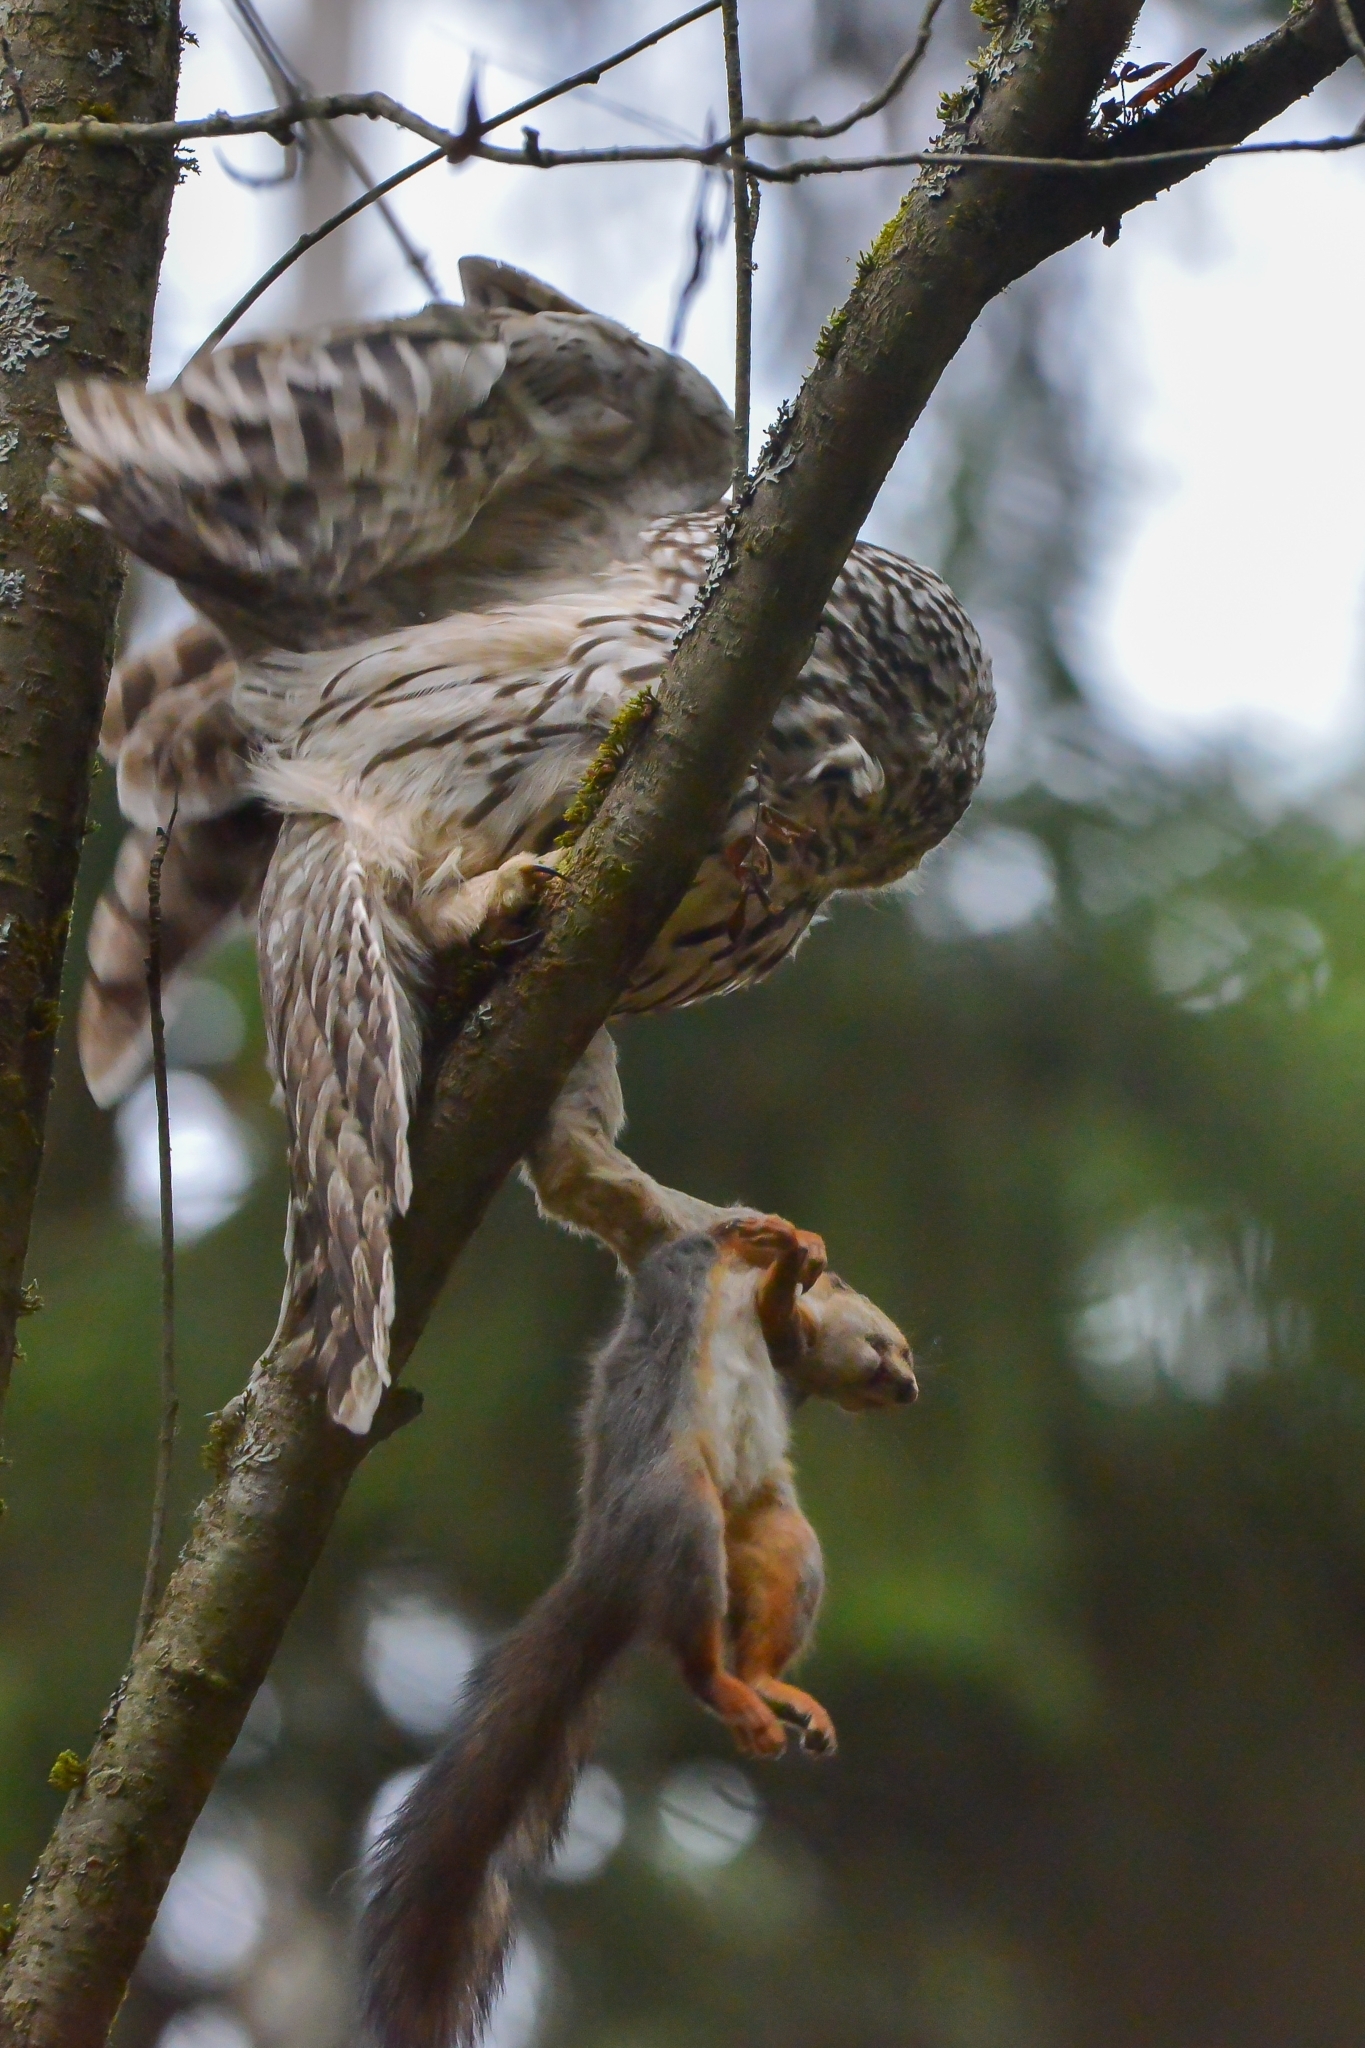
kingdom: Animalia
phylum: Chordata
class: Mammalia
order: Rodentia
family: Sciuridae
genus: Sciurus
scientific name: Sciurus vulgaris
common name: Eurasian red squirrel
